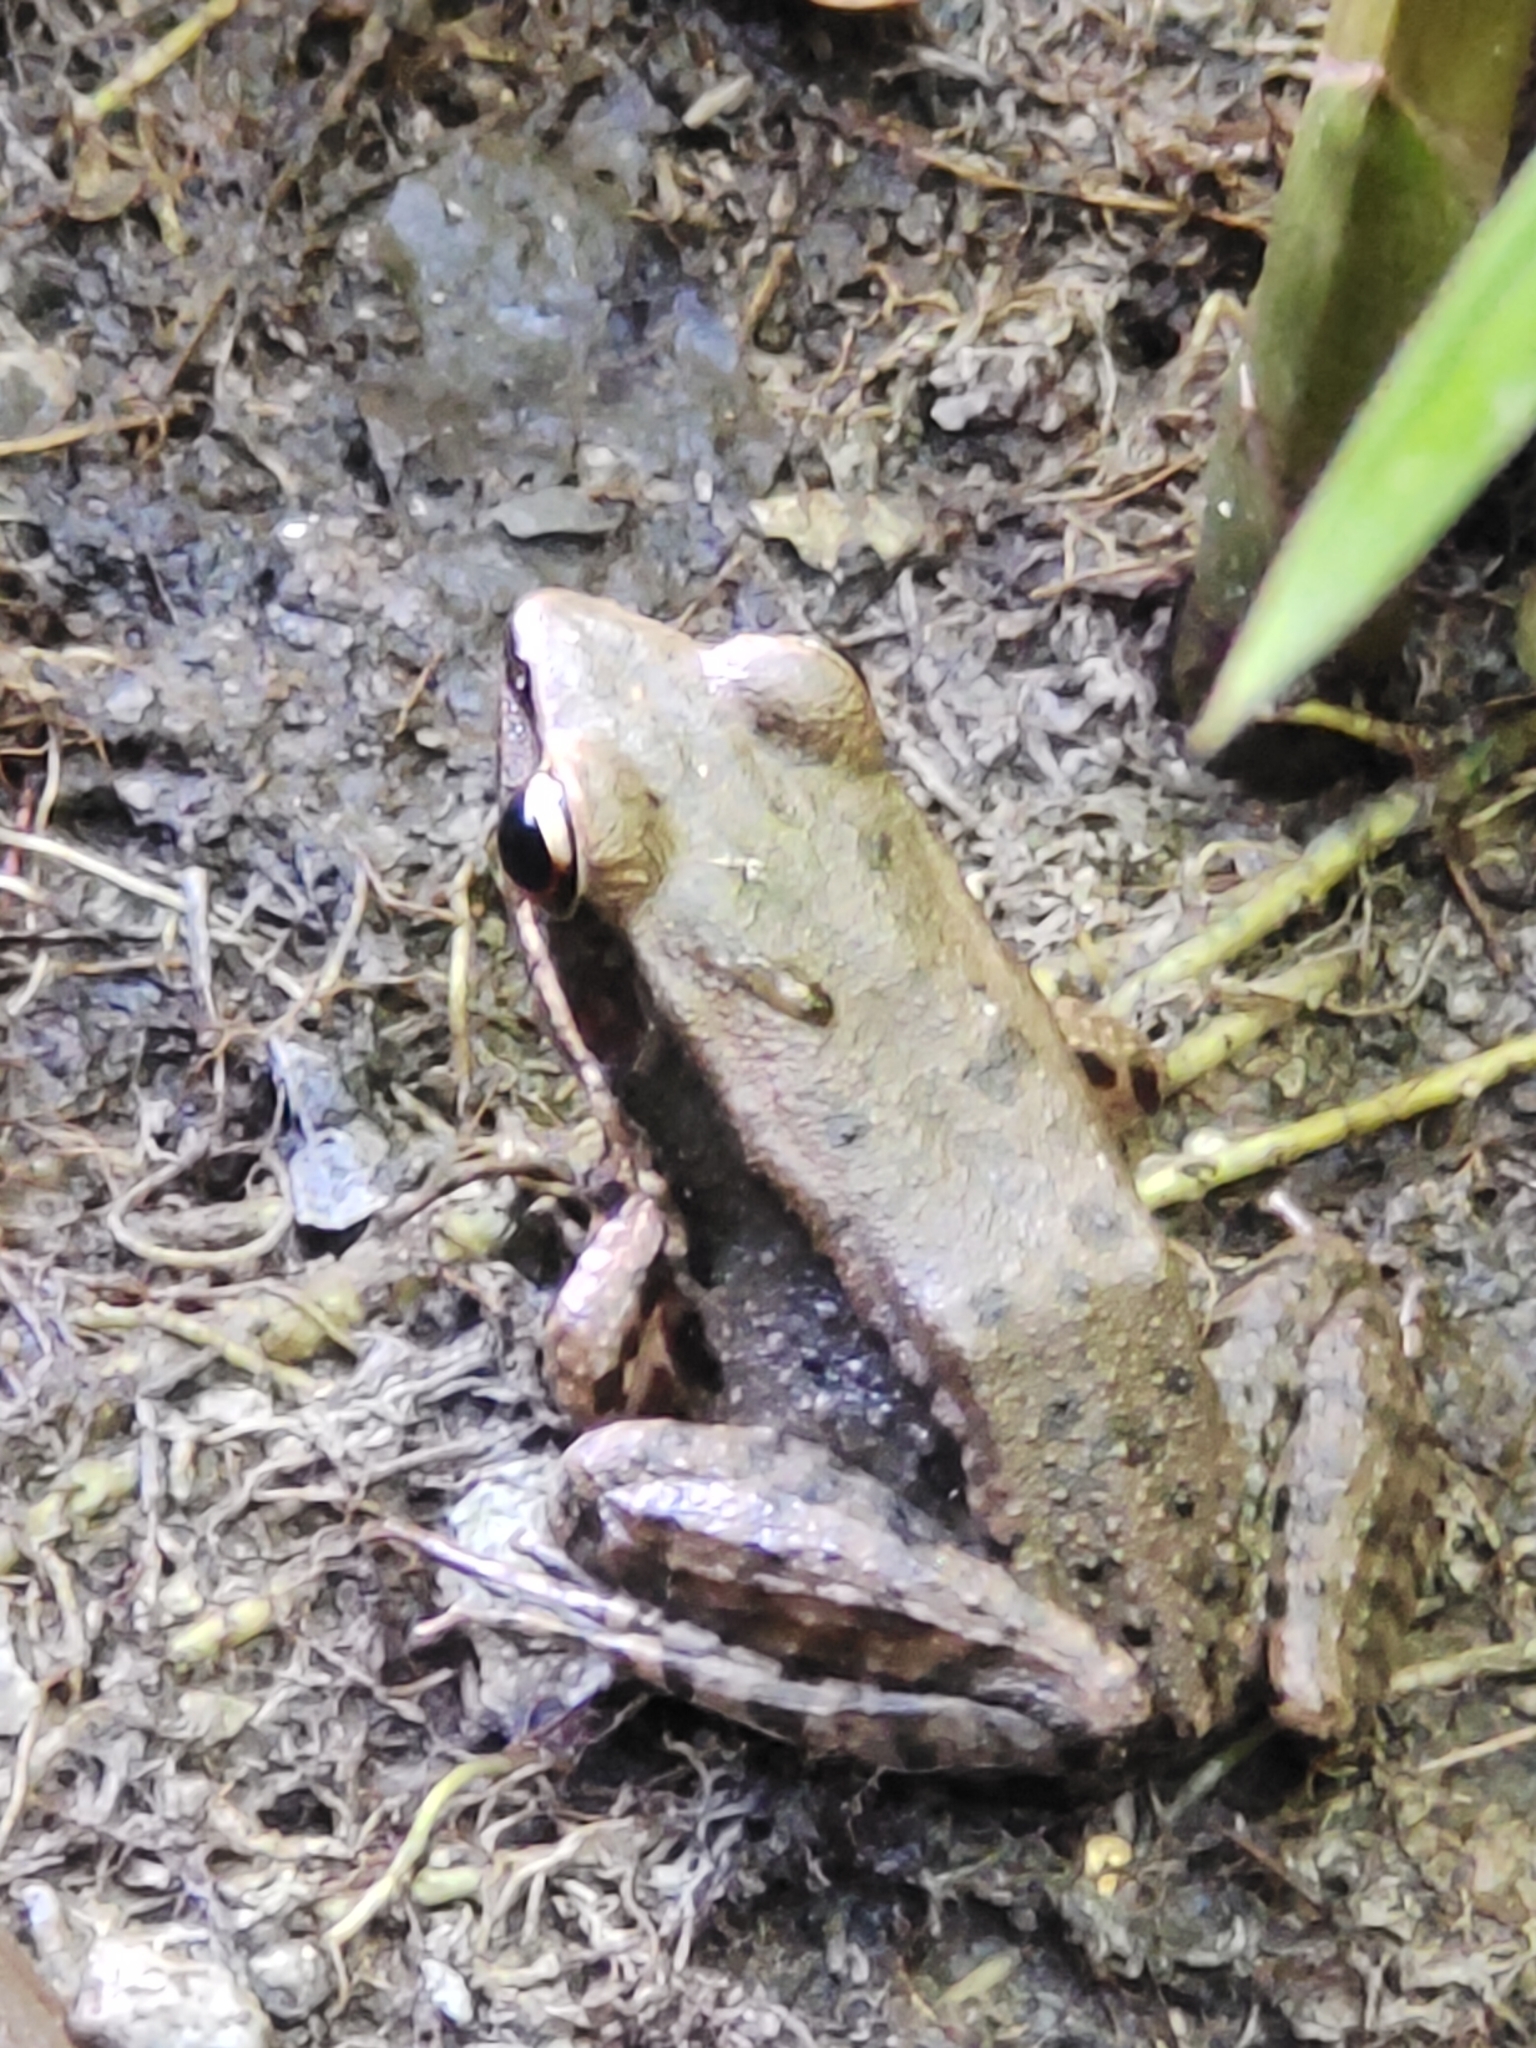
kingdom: Animalia
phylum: Chordata
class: Amphibia
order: Anura
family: Ranidae
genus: Sylvirana
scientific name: Sylvirana mortenseni
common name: Koh chang island frog
